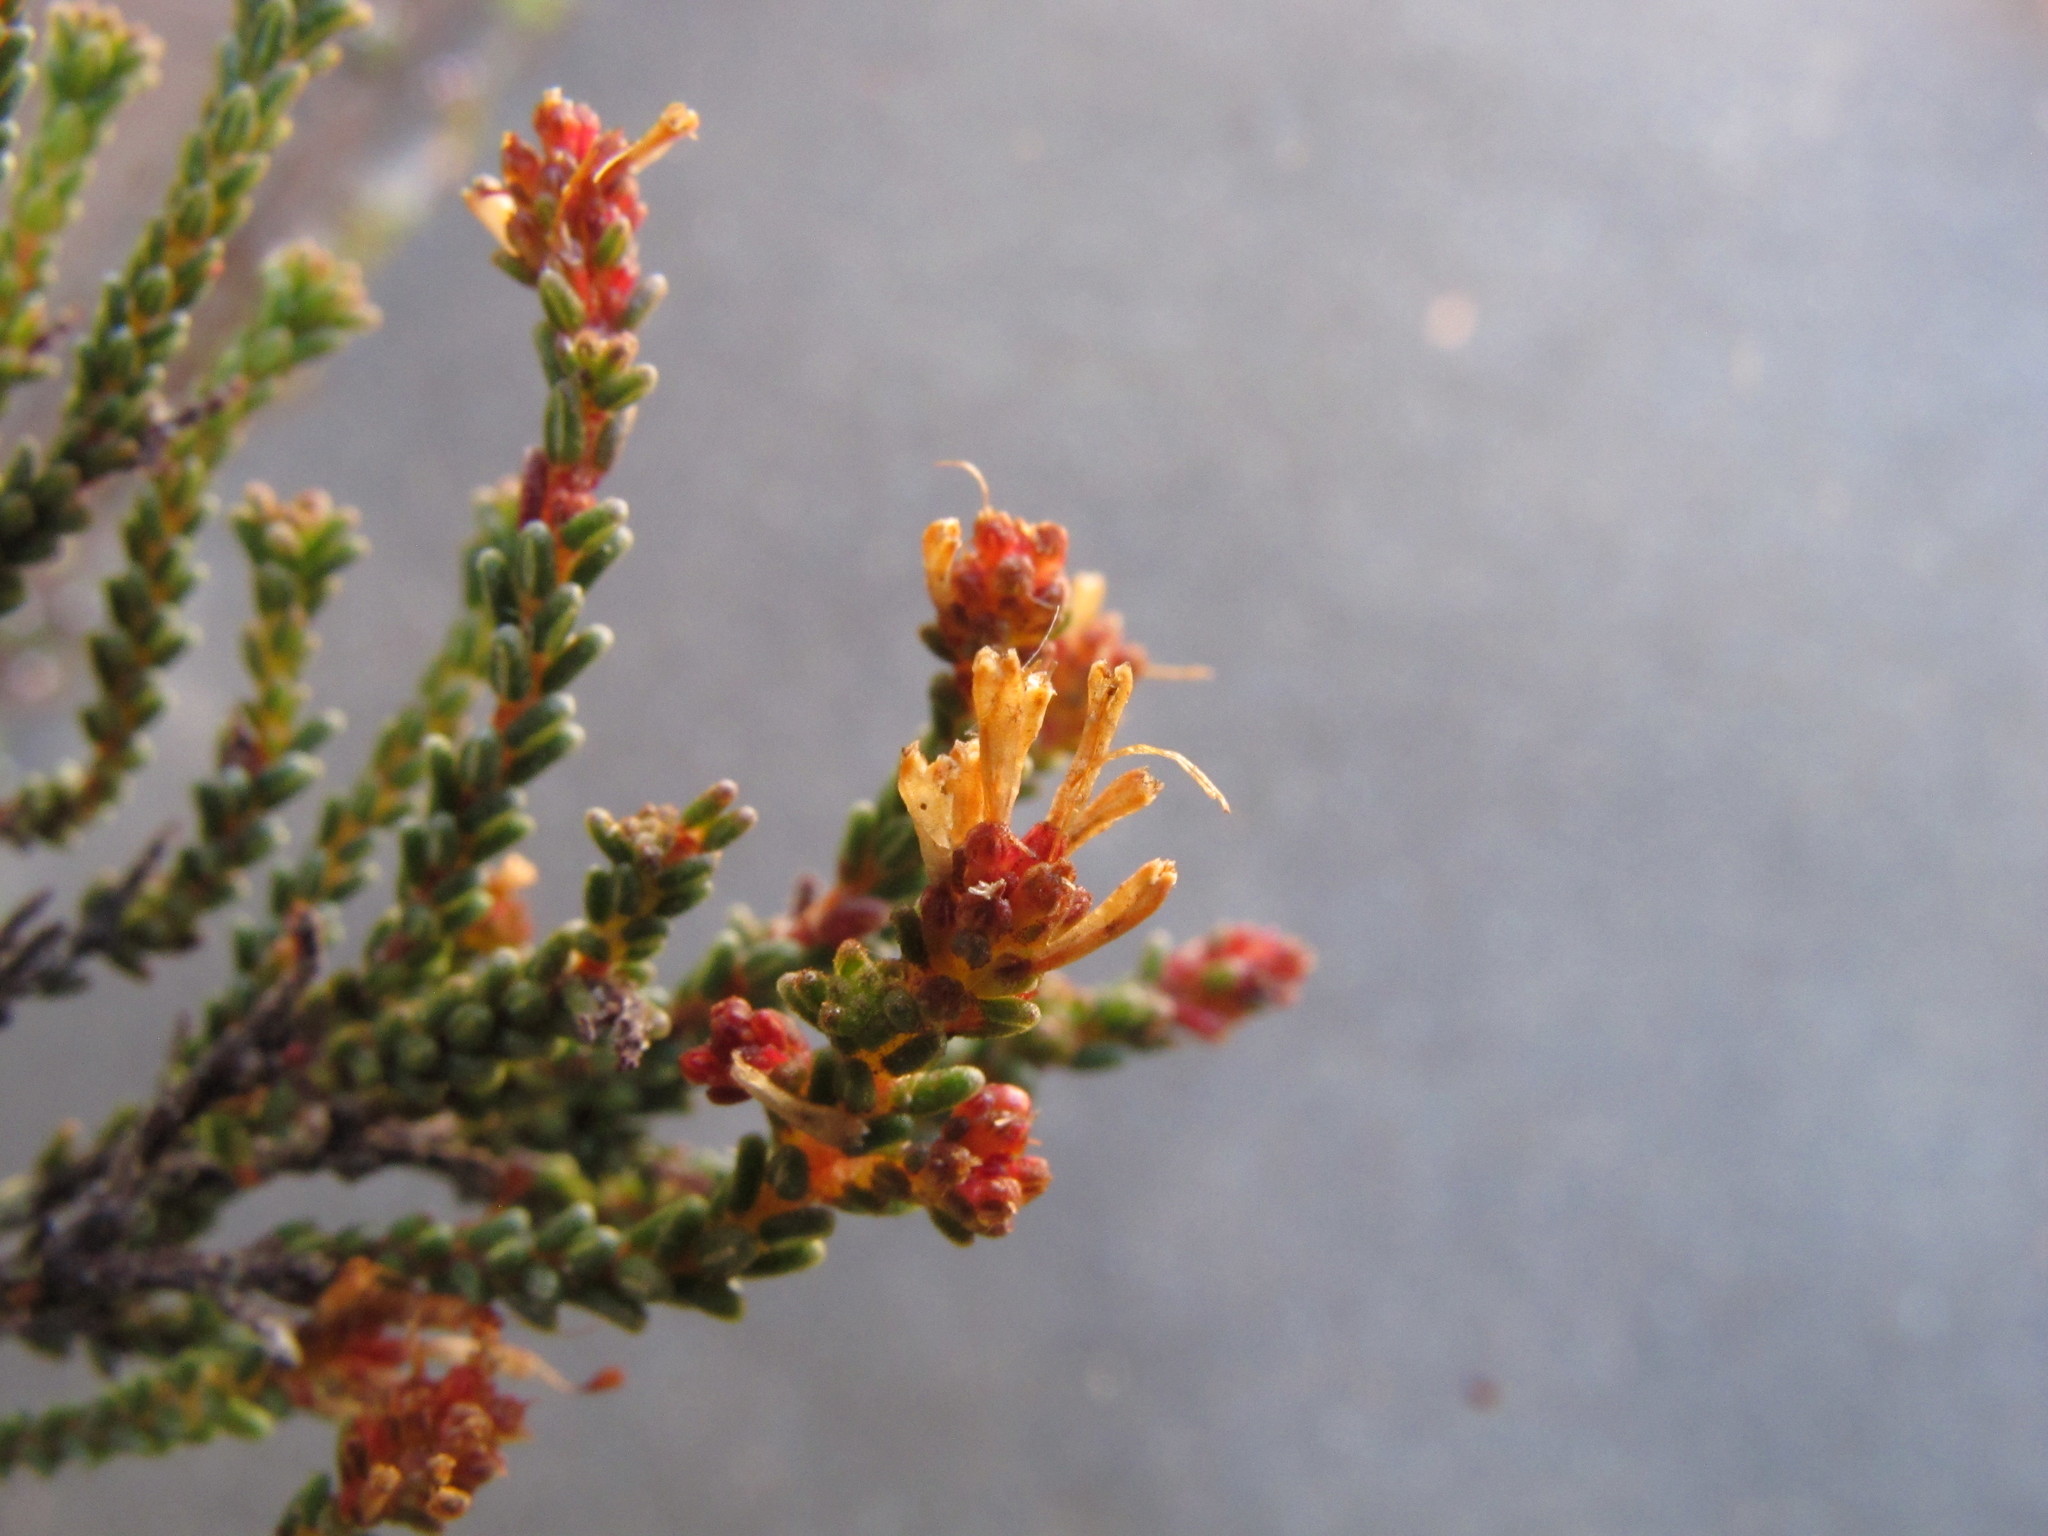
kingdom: Plantae
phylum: Tracheophyta
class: Magnoliopsida
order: Ericales
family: Ericaceae
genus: Erica
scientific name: Erica venustiflora
